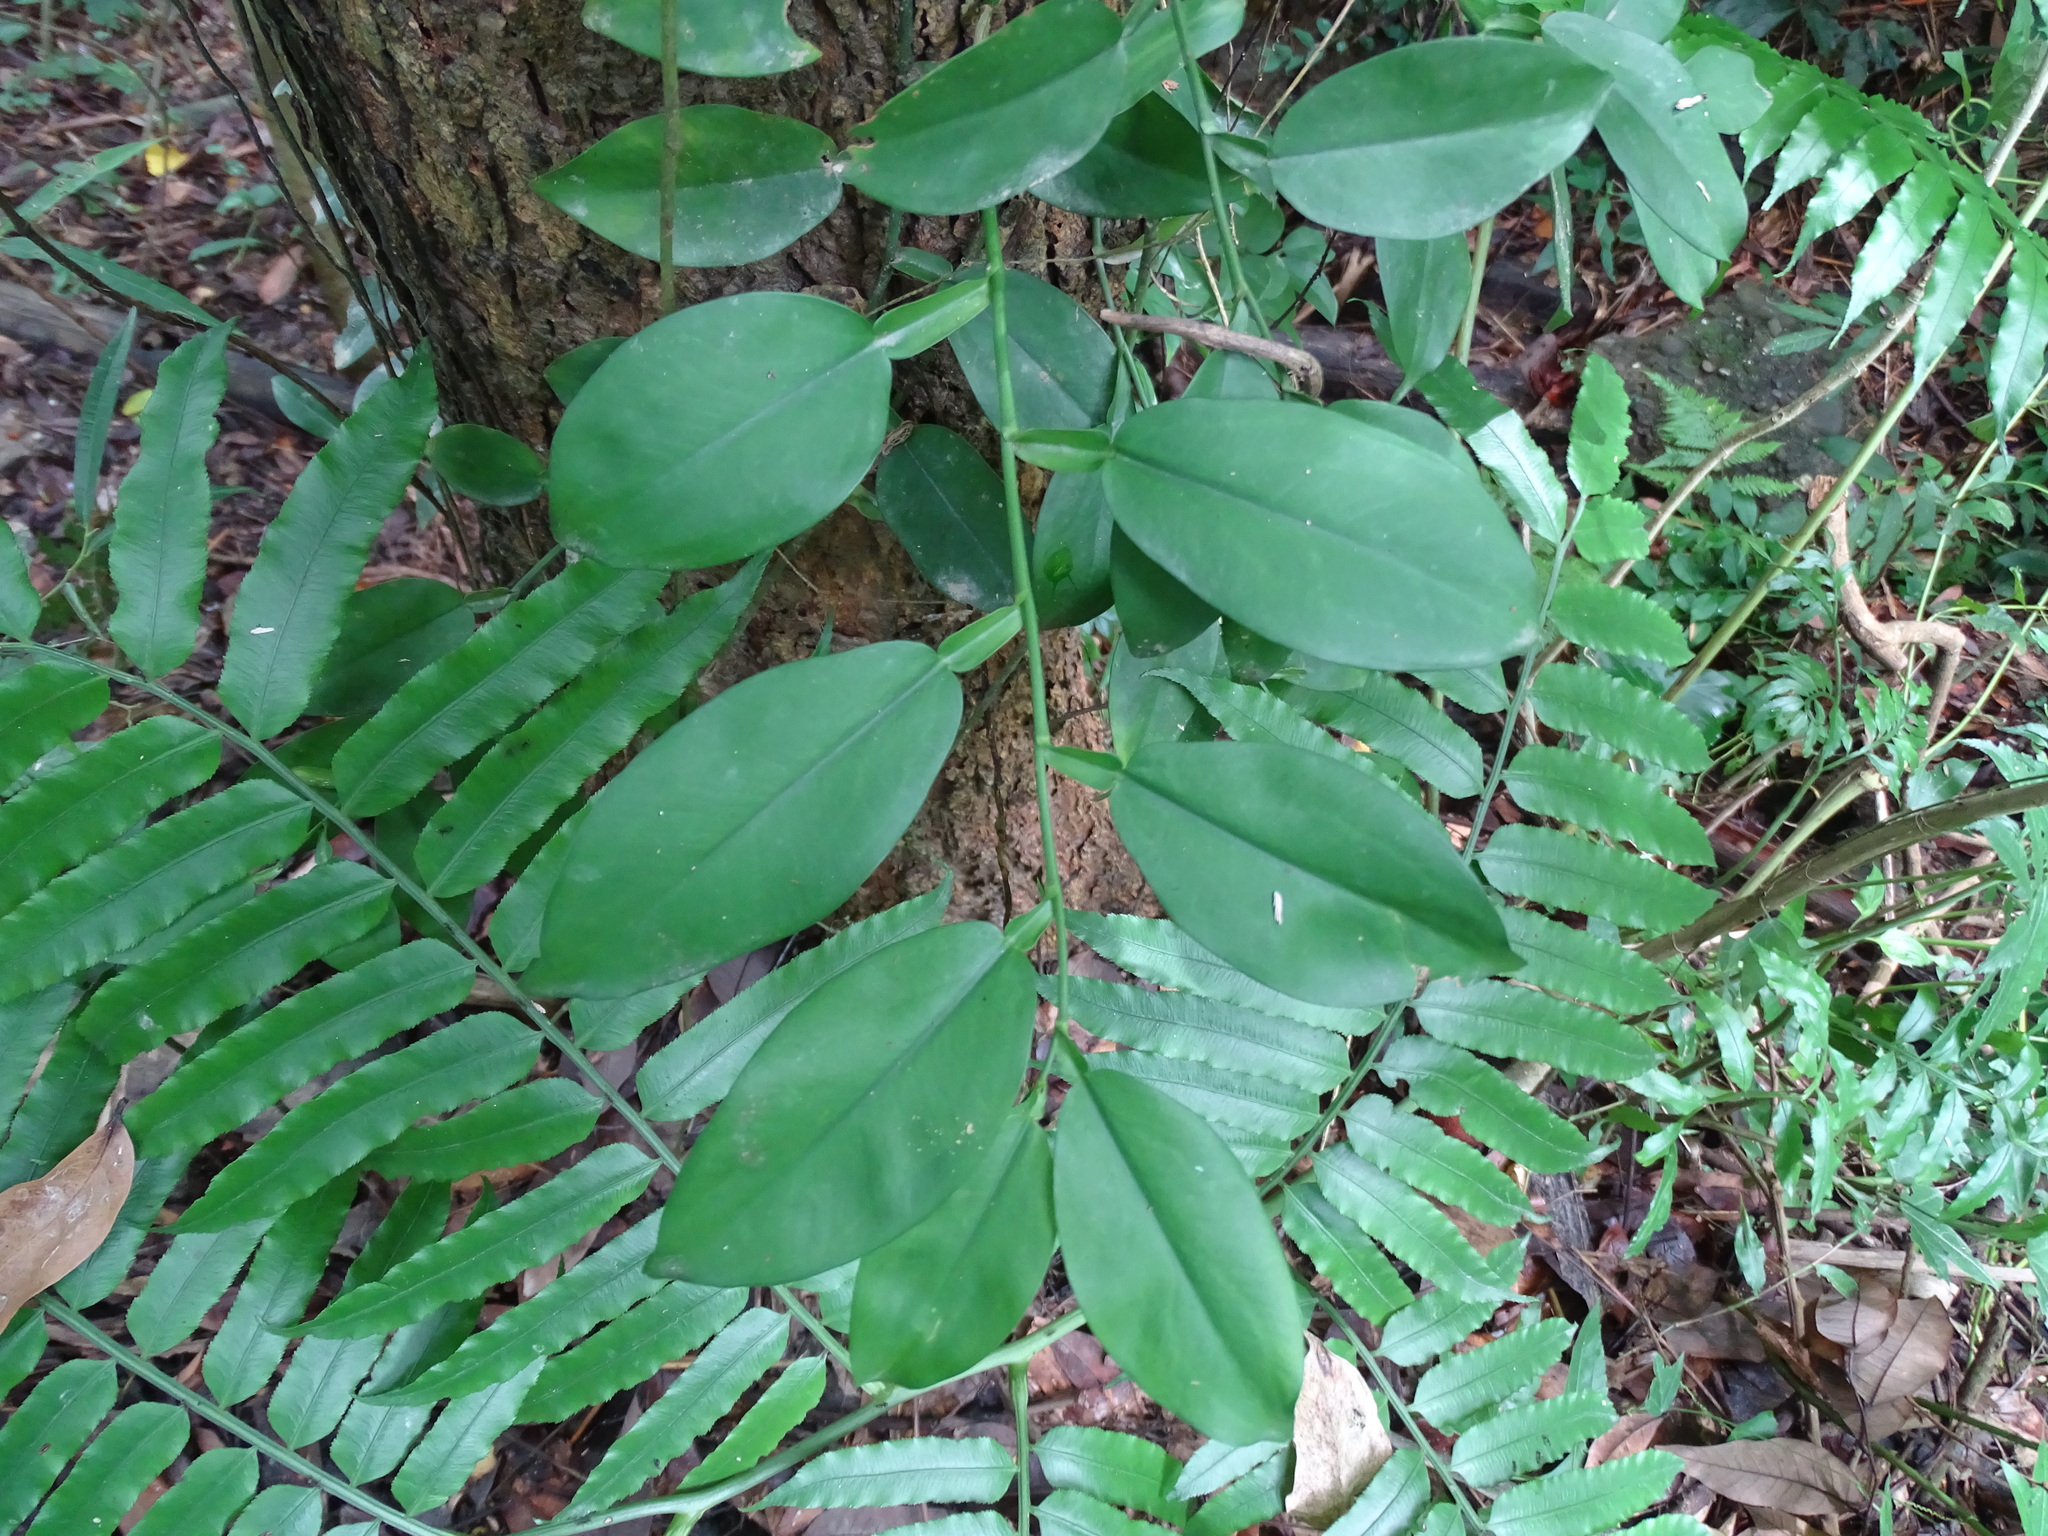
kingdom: Plantae
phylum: Tracheophyta
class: Liliopsida
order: Alismatales
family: Araceae
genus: Pothos
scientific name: Pothos chinensis
